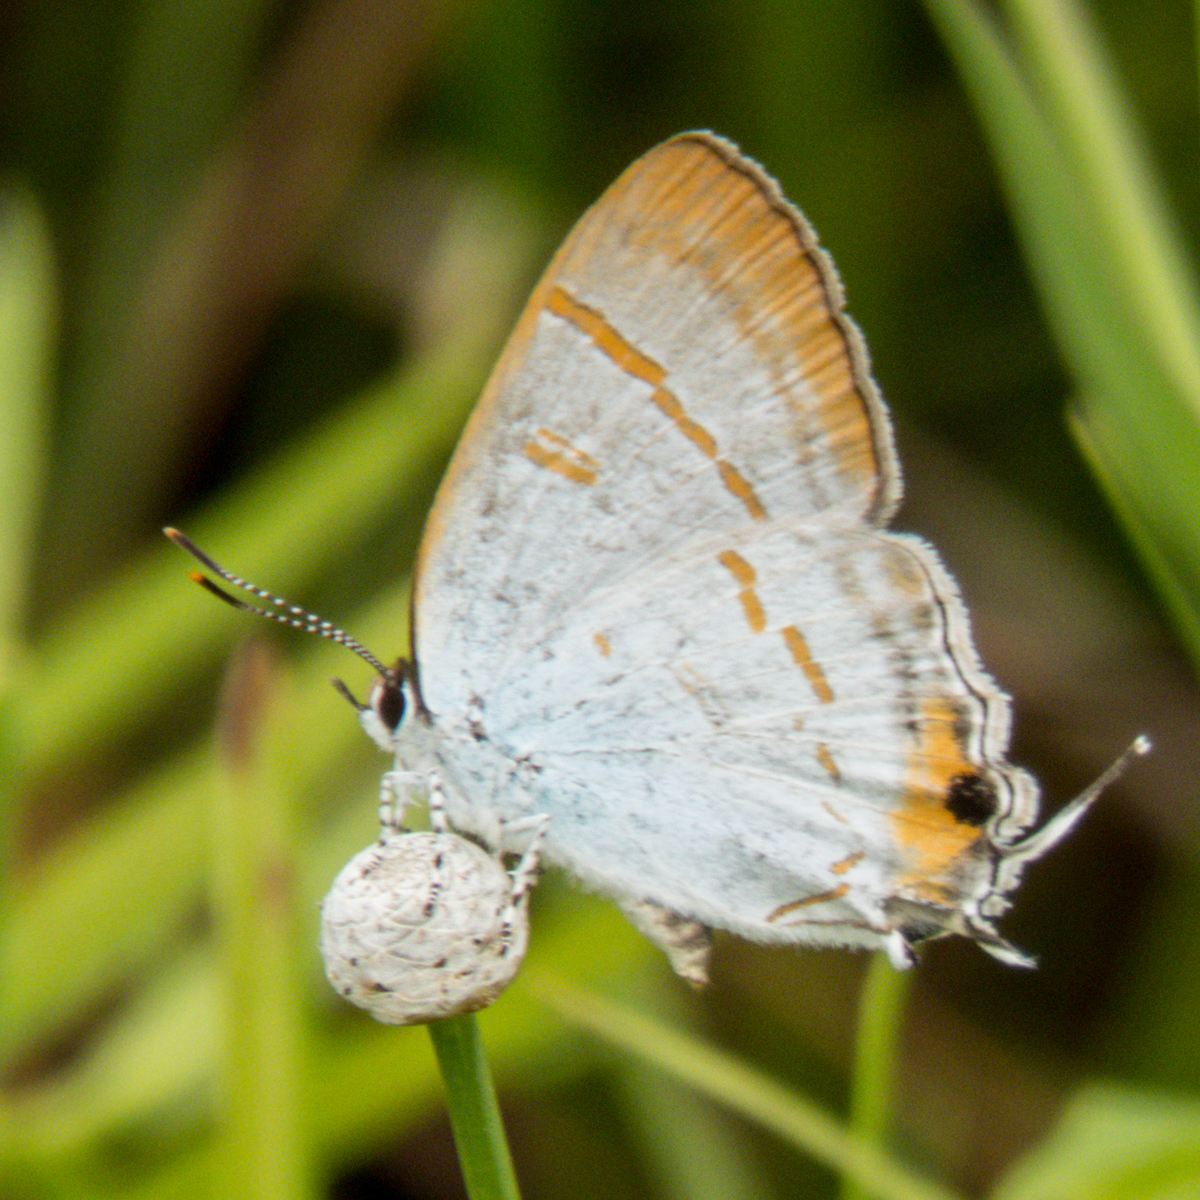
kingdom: Animalia
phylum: Arthropoda
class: Insecta
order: Lepidoptera
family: Lycaenidae
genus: Hypolycaena
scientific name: Hypolycaena thecloides
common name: Dark tit
